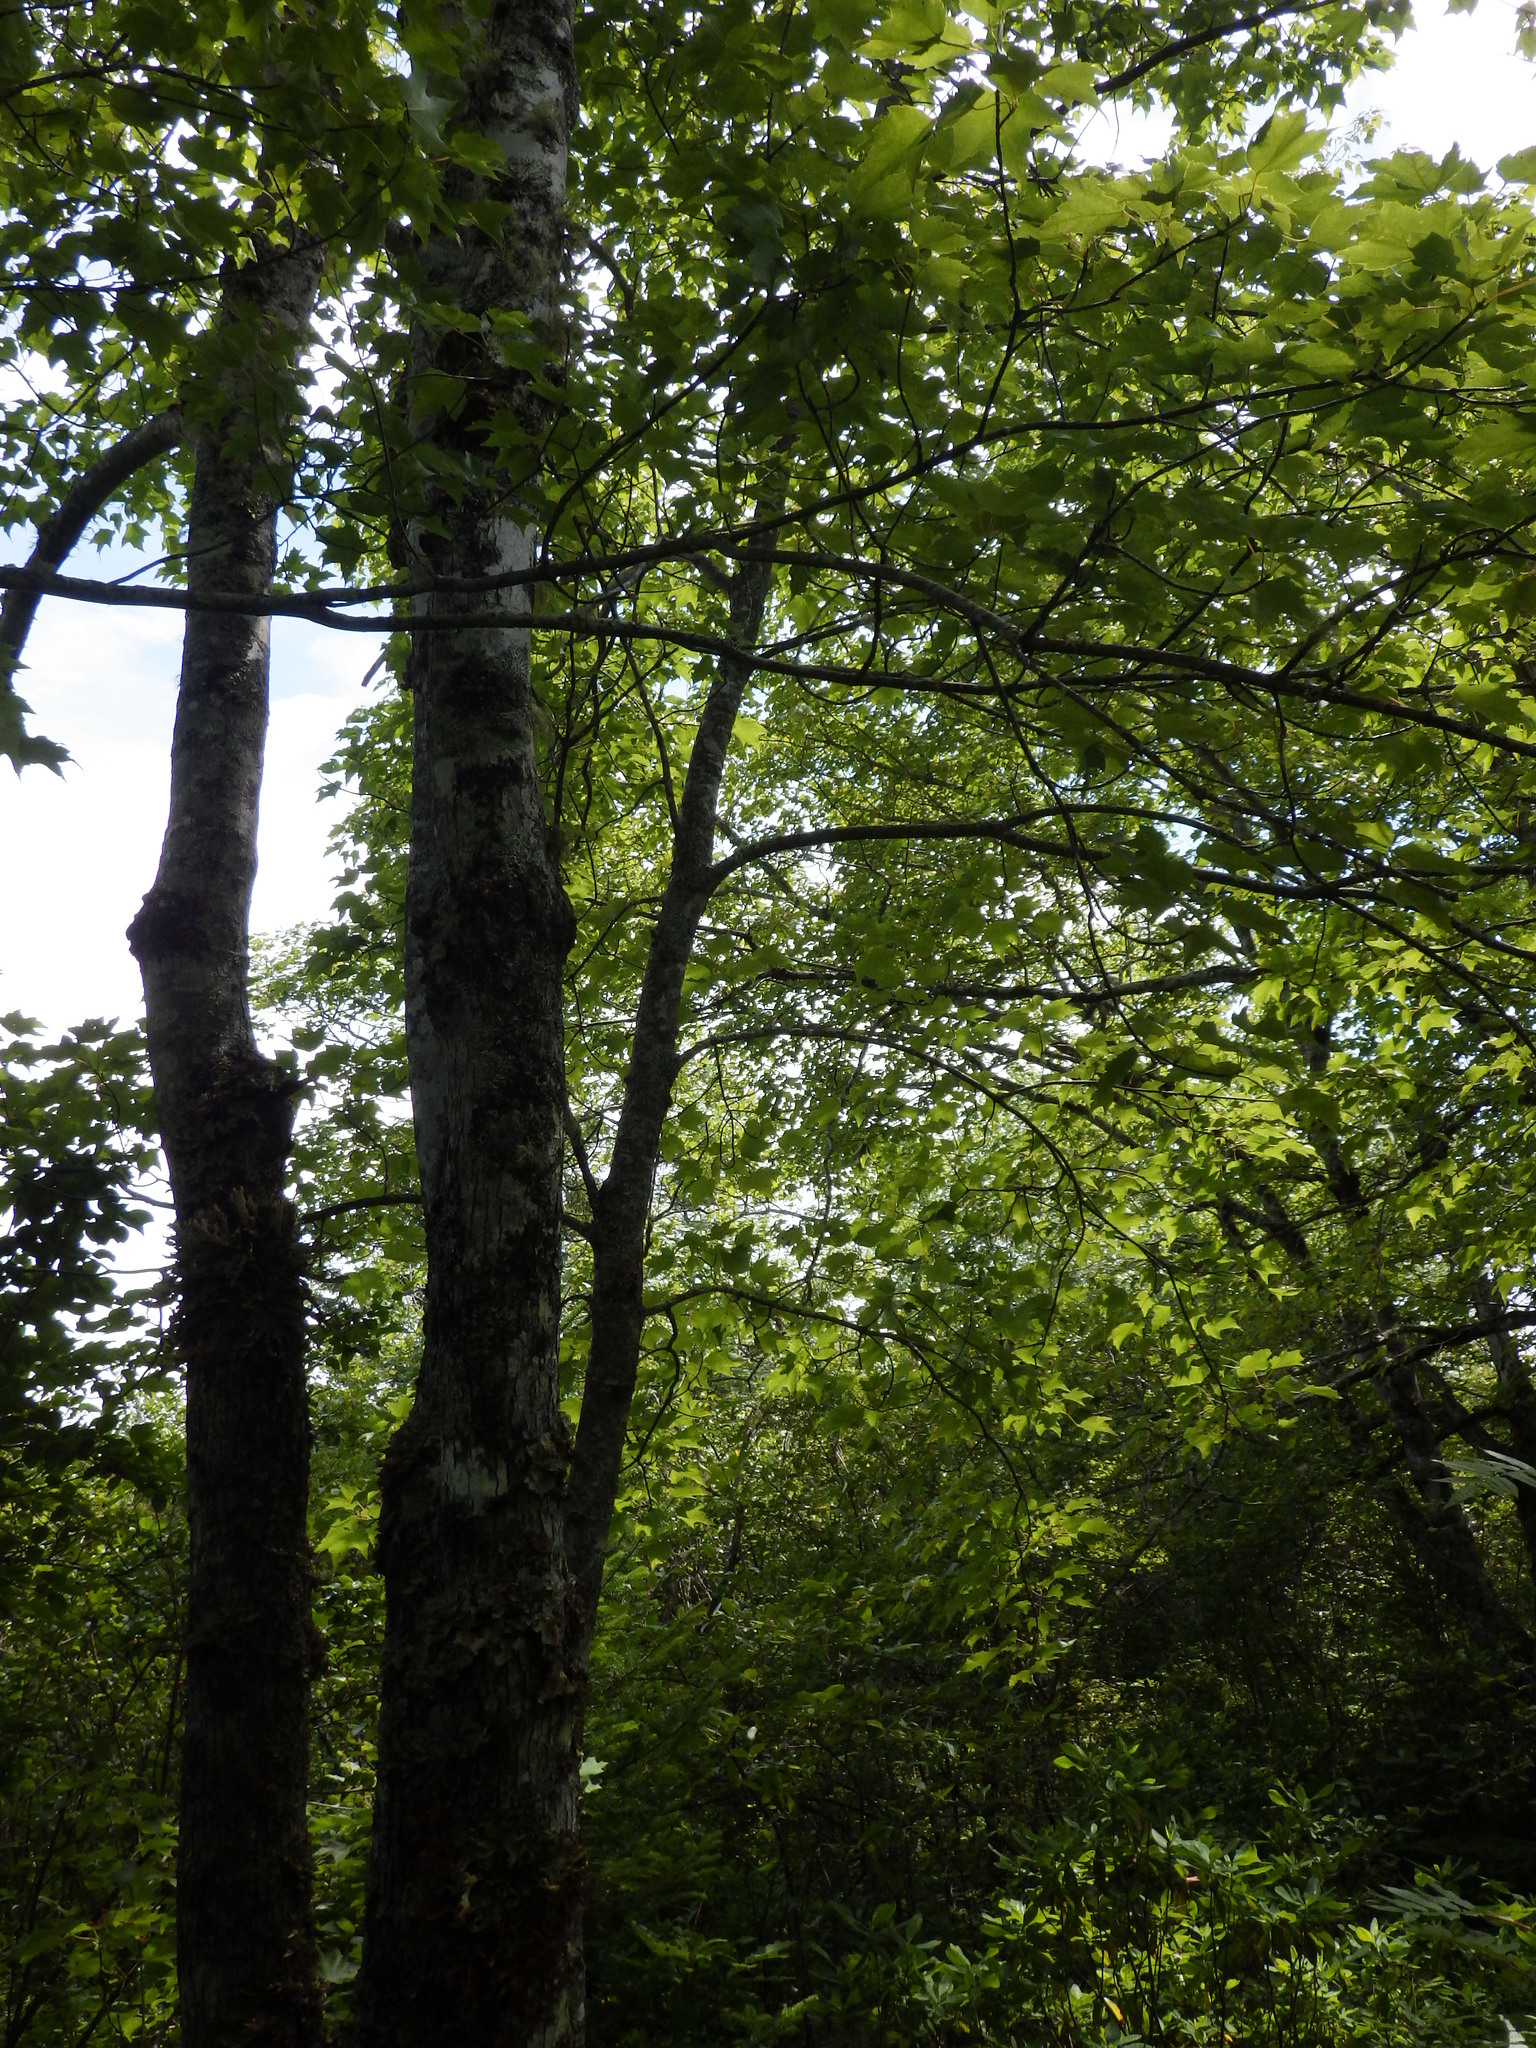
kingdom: Plantae
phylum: Tracheophyta
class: Magnoliopsida
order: Sapindales
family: Sapindaceae
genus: Acer
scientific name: Acer rubrum
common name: Red maple
